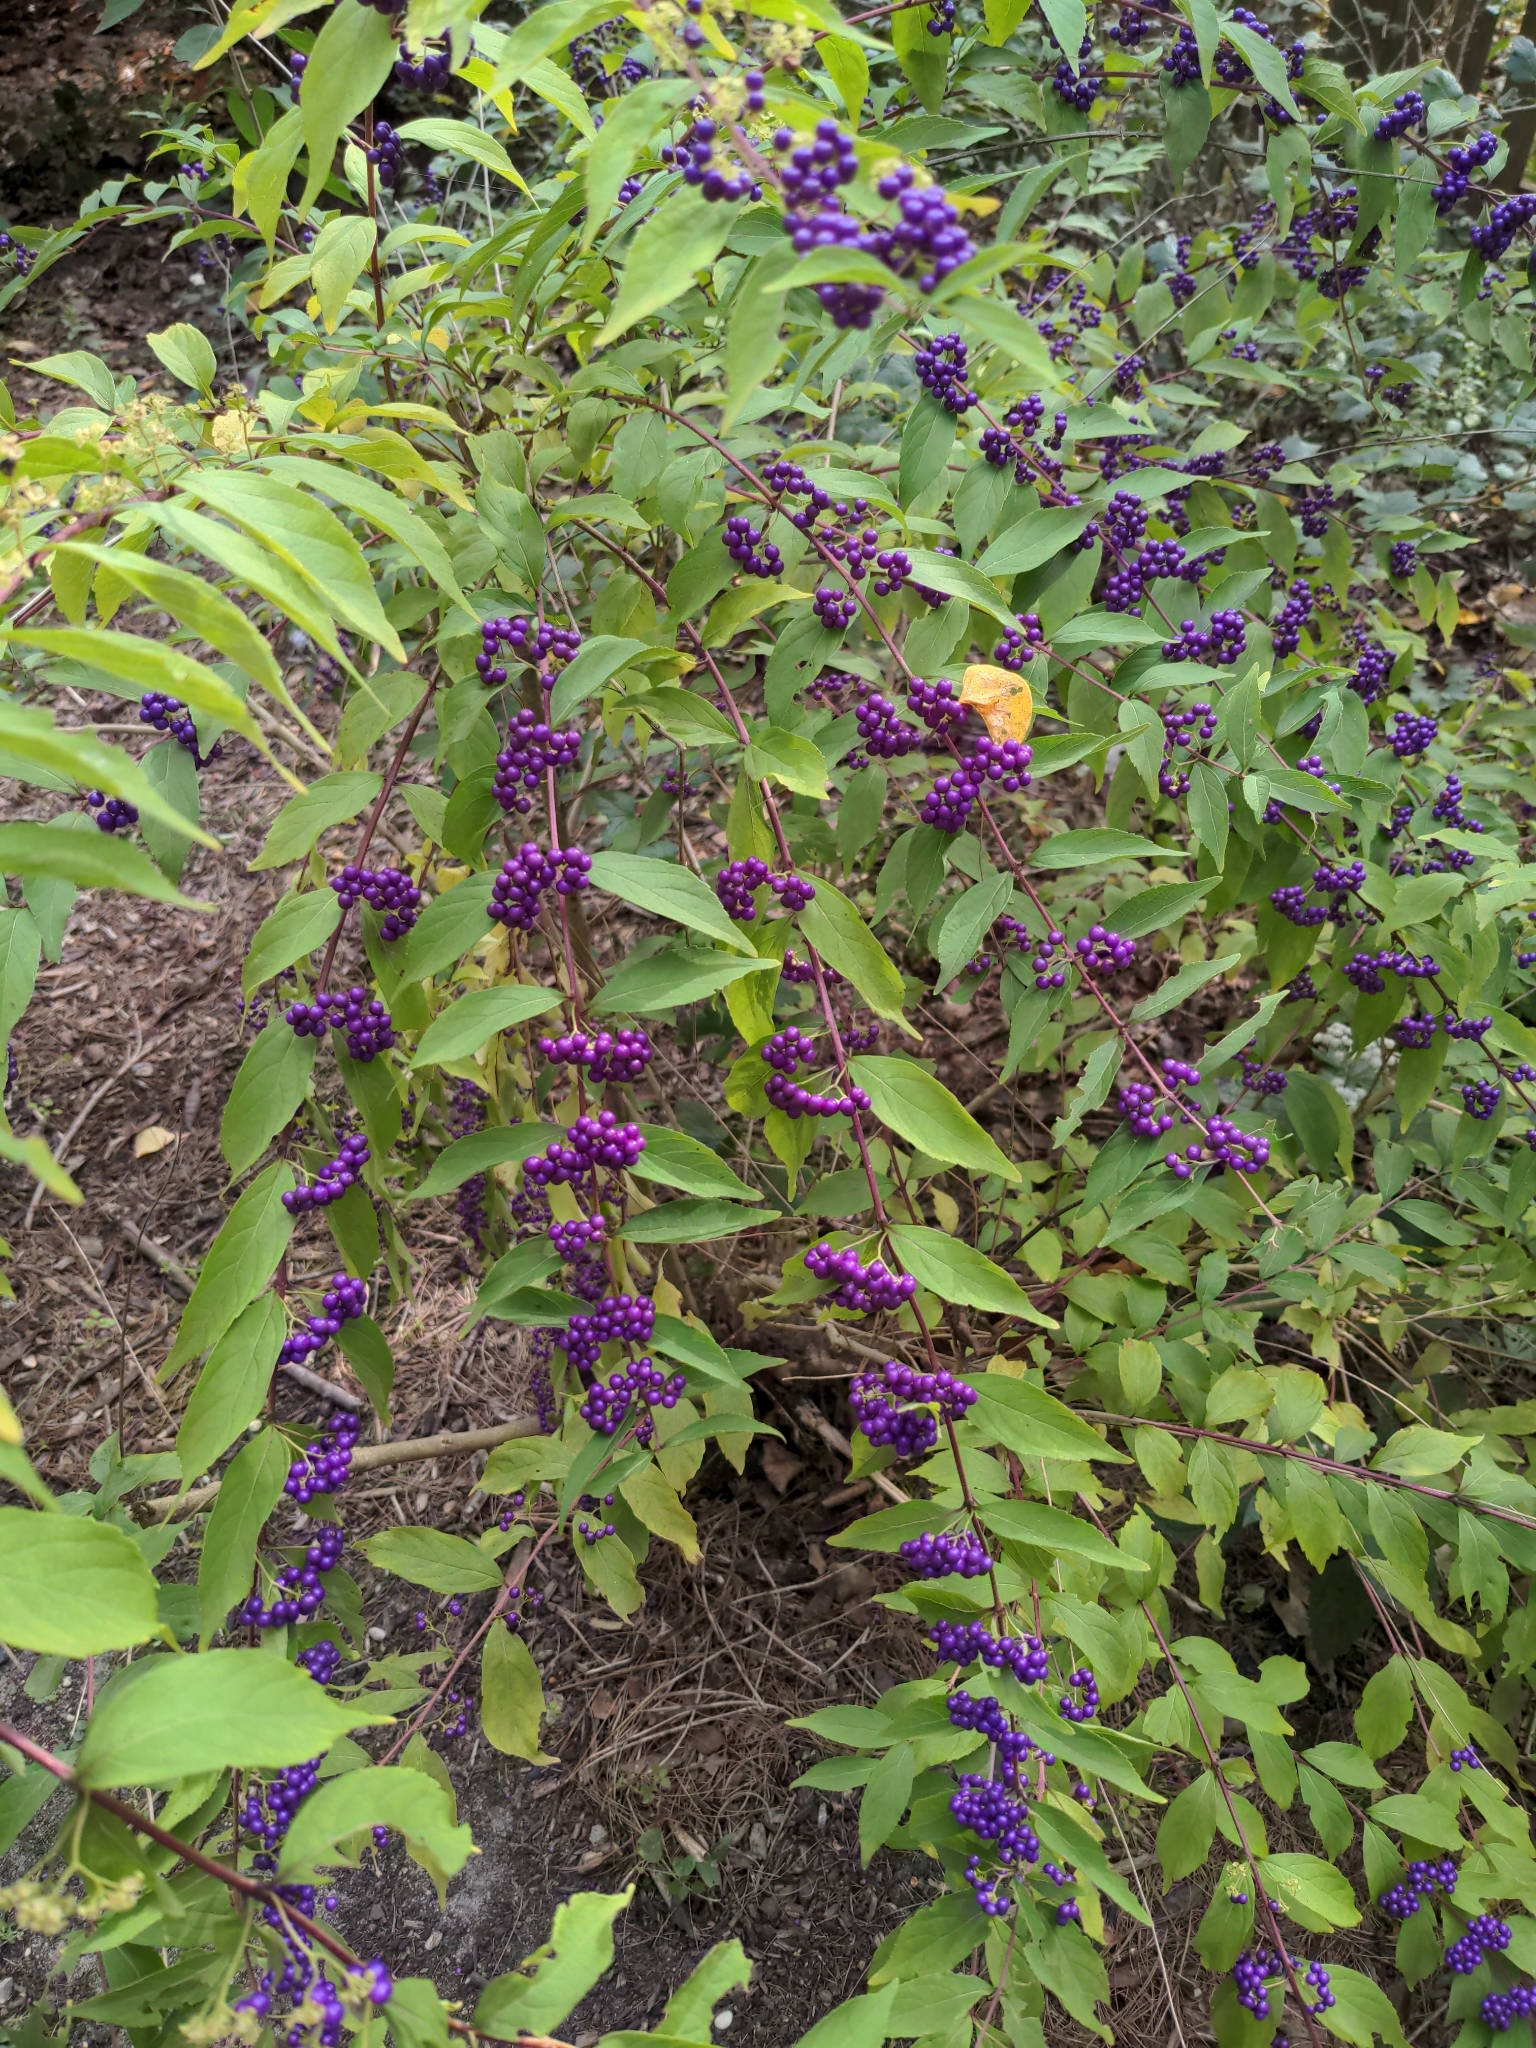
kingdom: Plantae
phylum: Tracheophyta
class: Magnoliopsida
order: Lamiales
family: Lamiaceae
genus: Callicarpa
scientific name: Callicarpa dichotoma
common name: Purple beauty-berry
